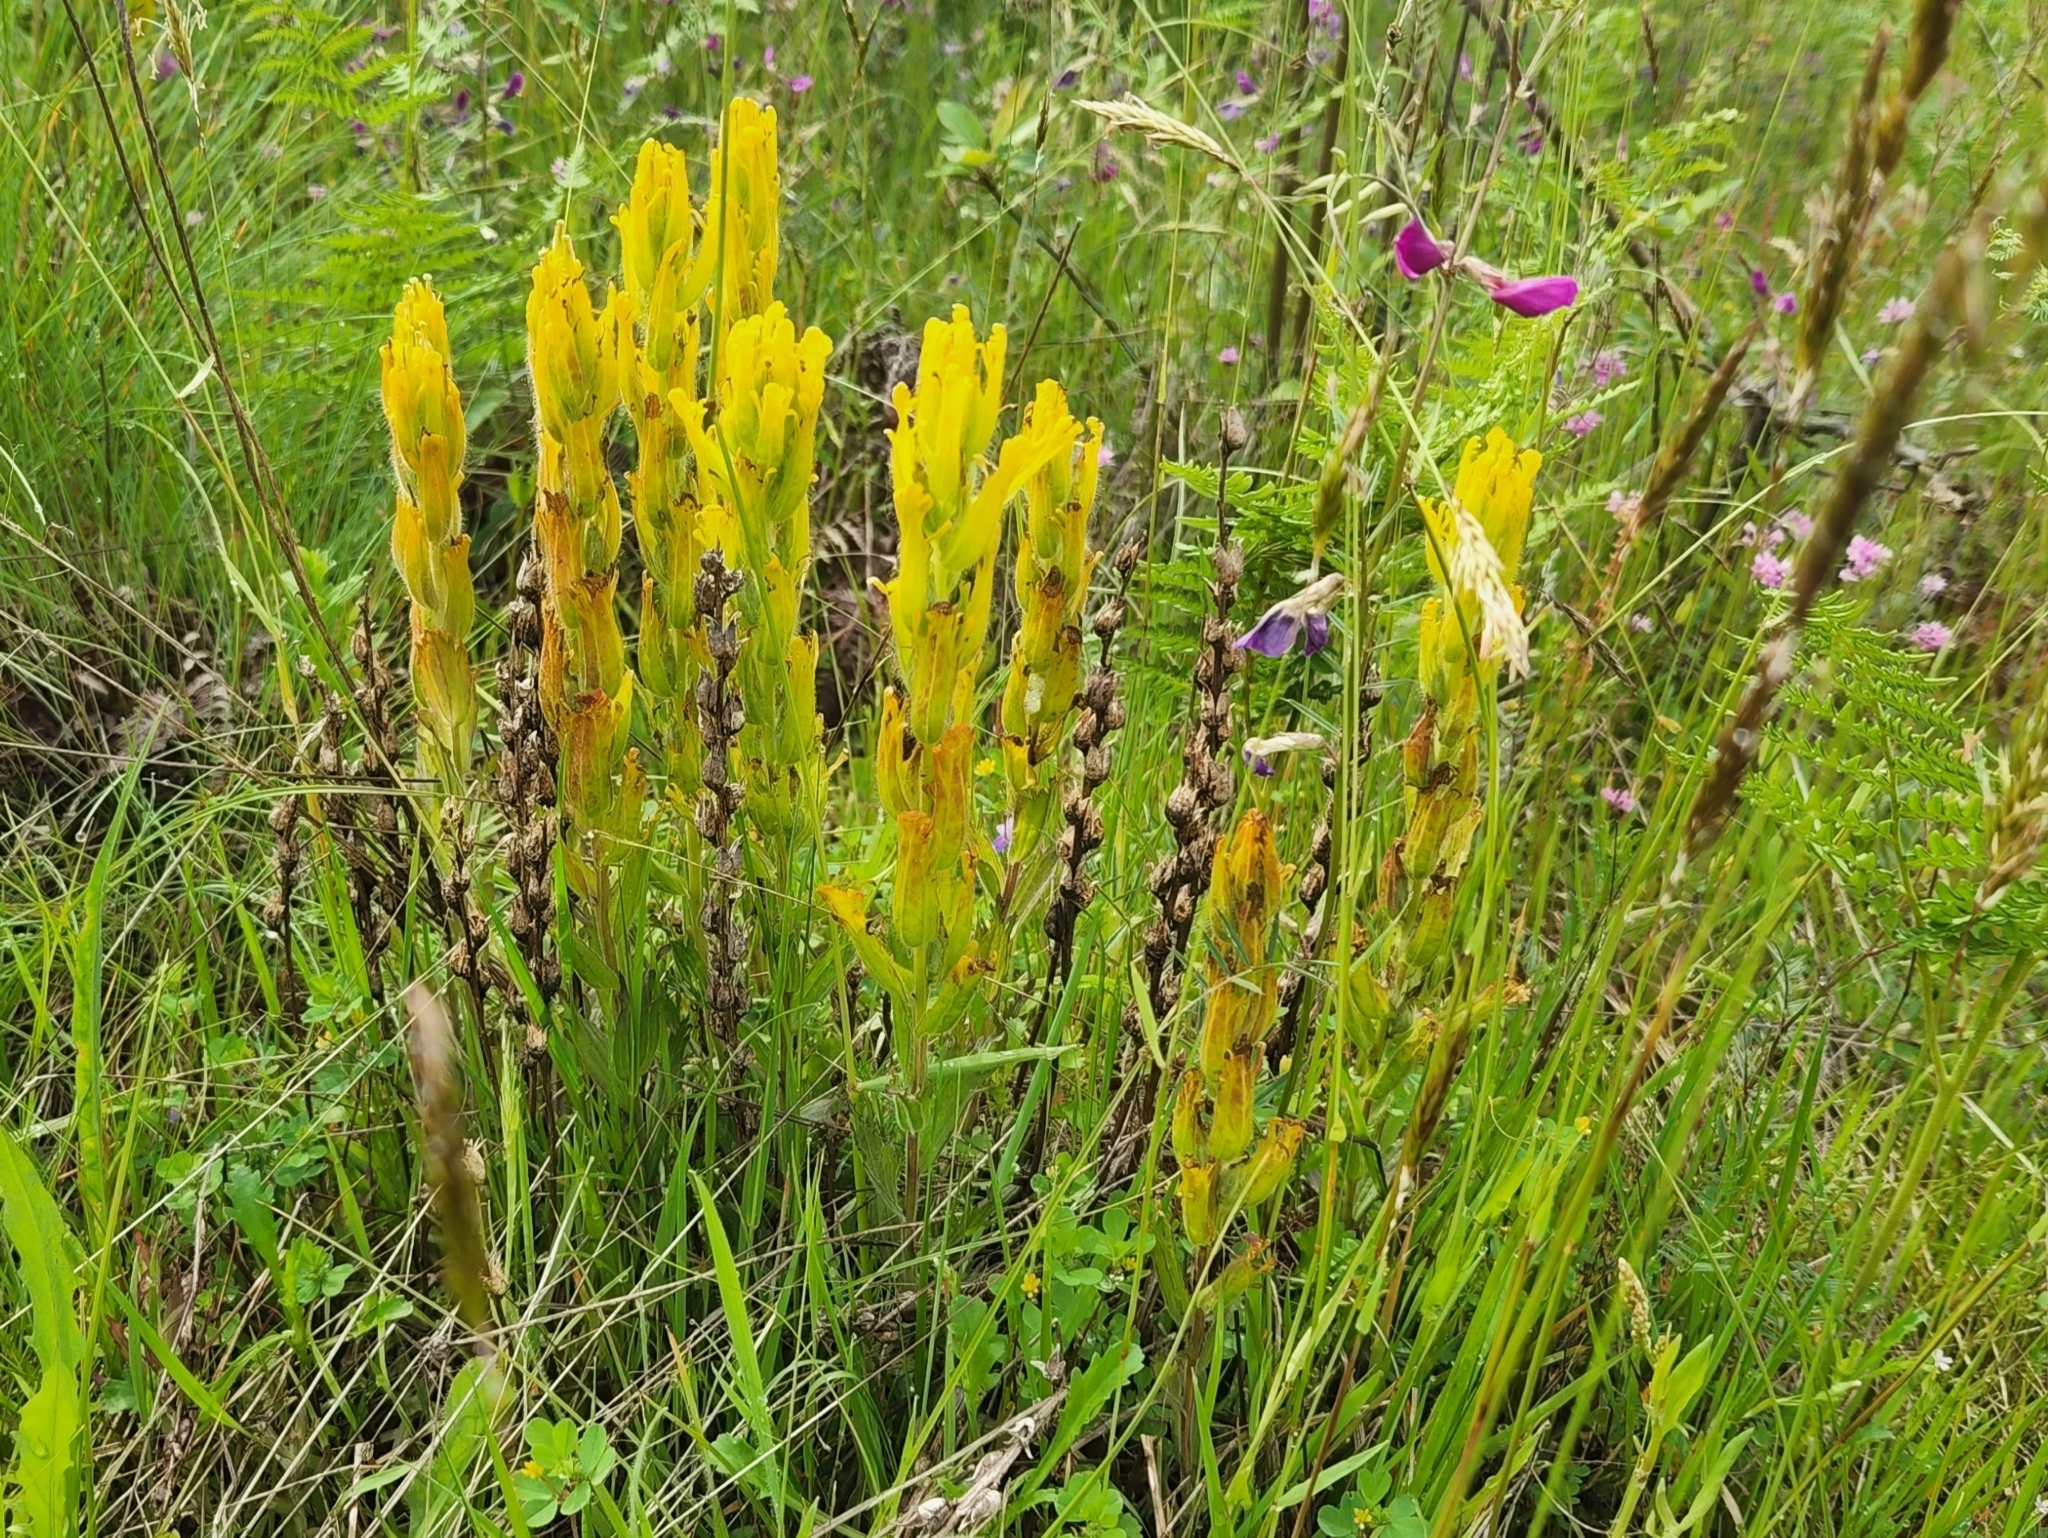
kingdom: Plantae
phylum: Tracheophyta
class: Magnoliopsida
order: Lamiales
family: Orobanchaceae
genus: Castilleja
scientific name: Castilleja levisecta
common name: Golden paintbrush
